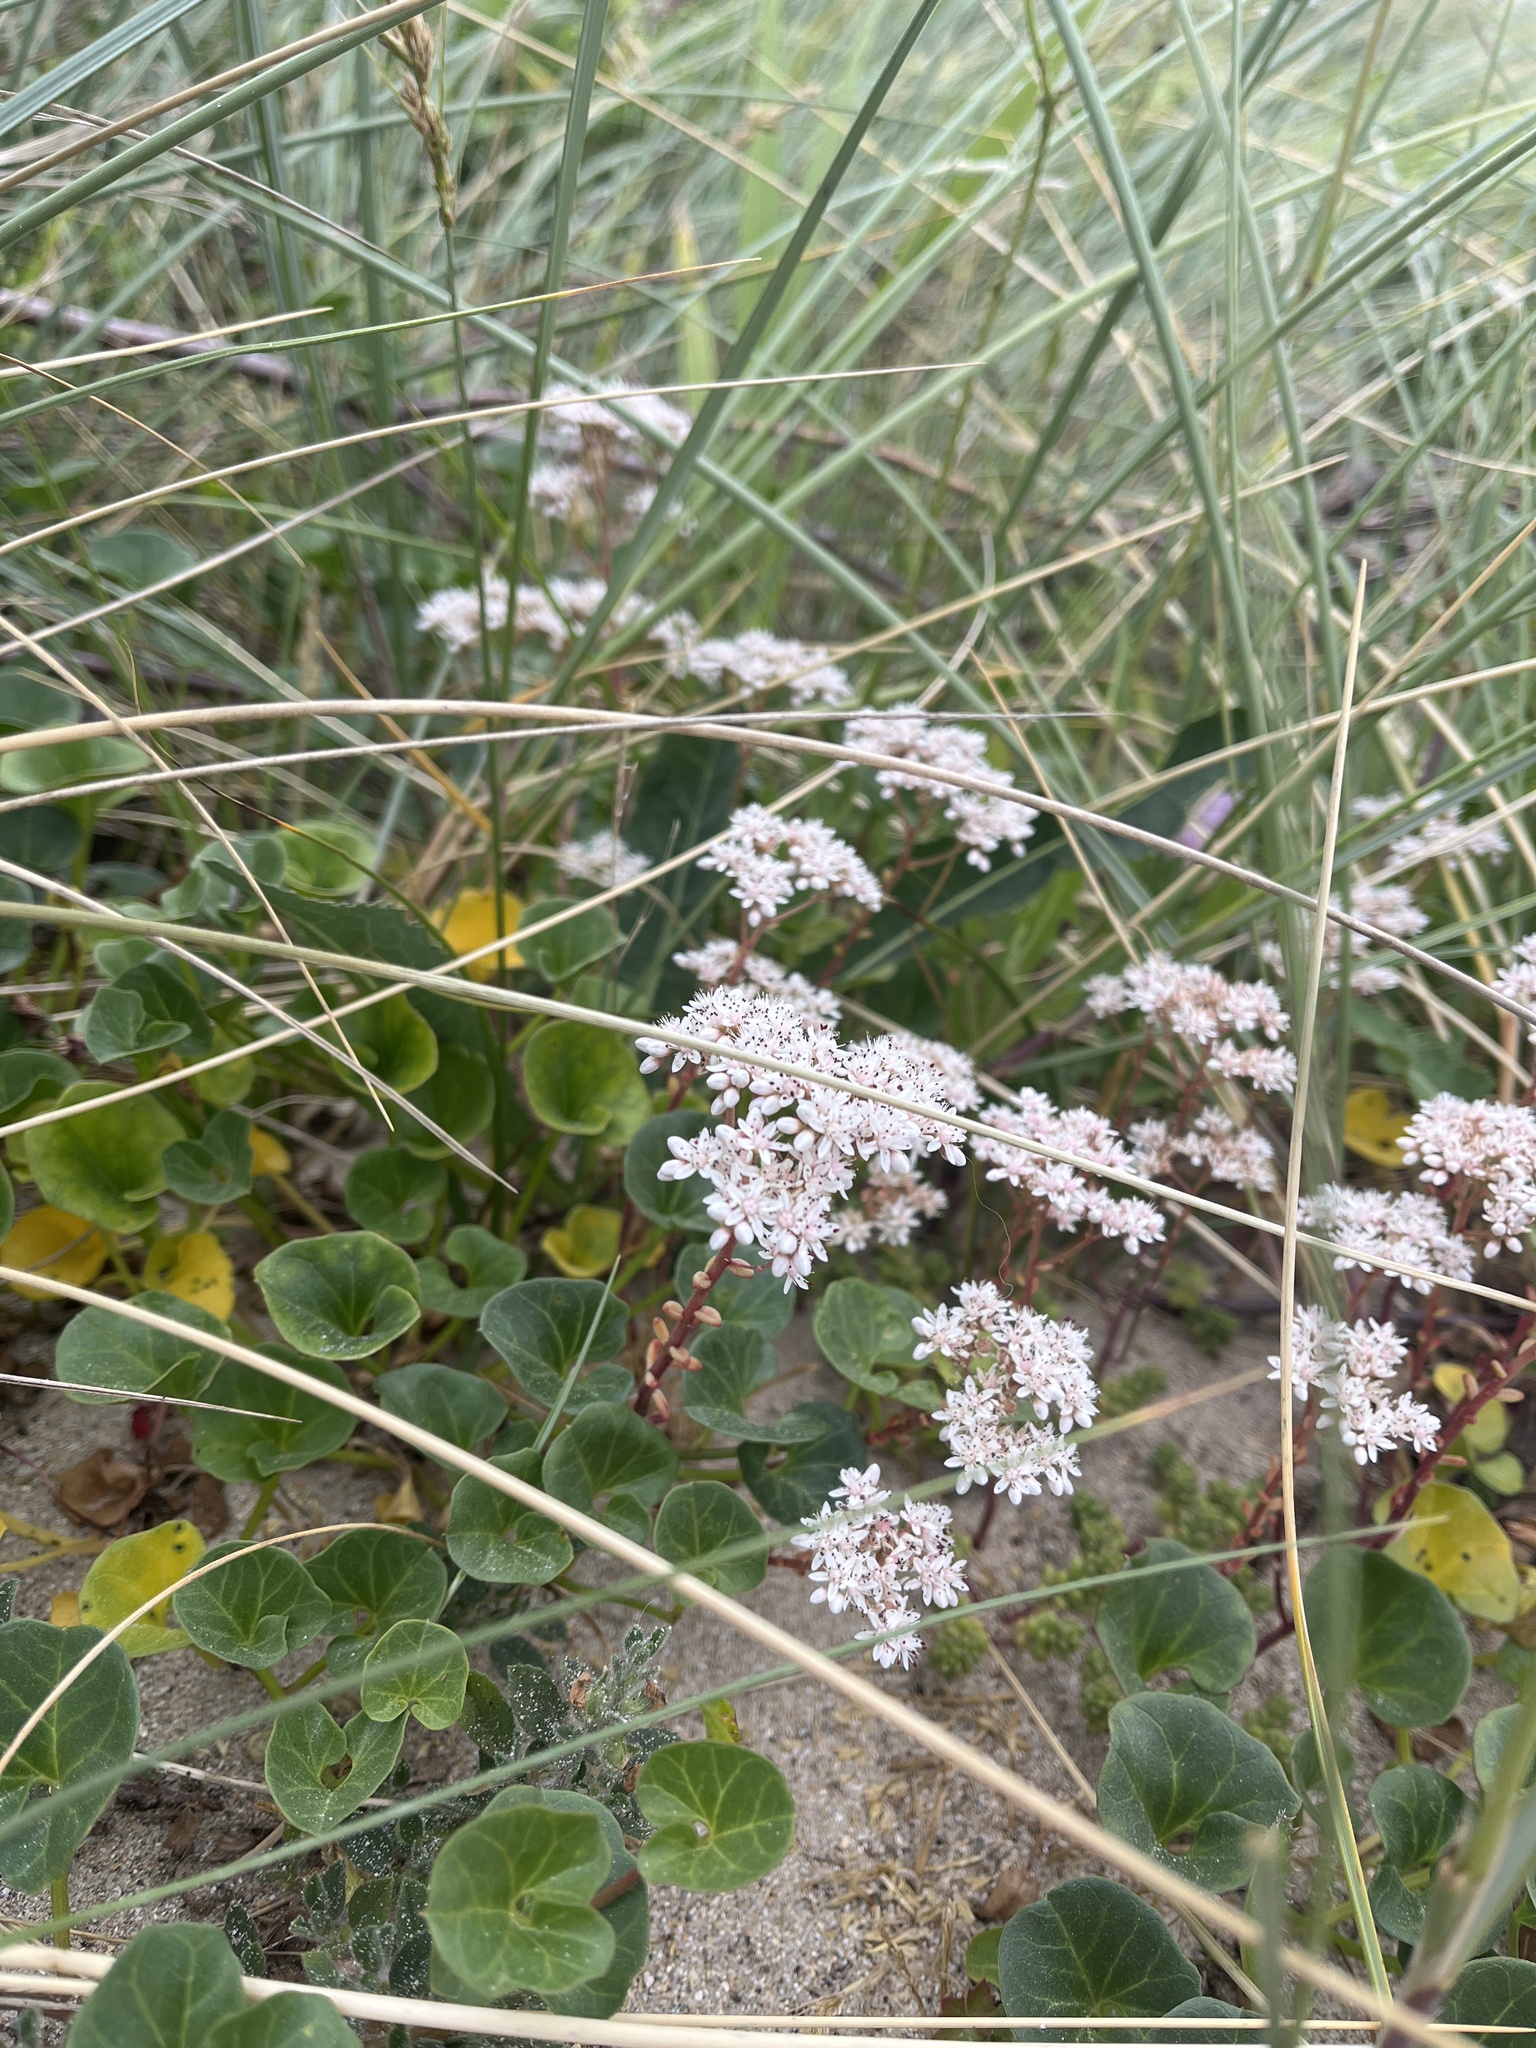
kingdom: Plantae
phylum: Tracheophyta
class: Magnoliopsida
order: Saxifragales
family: Crassulaceae
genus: Sedum
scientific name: Sedum album
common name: White stonecrop
